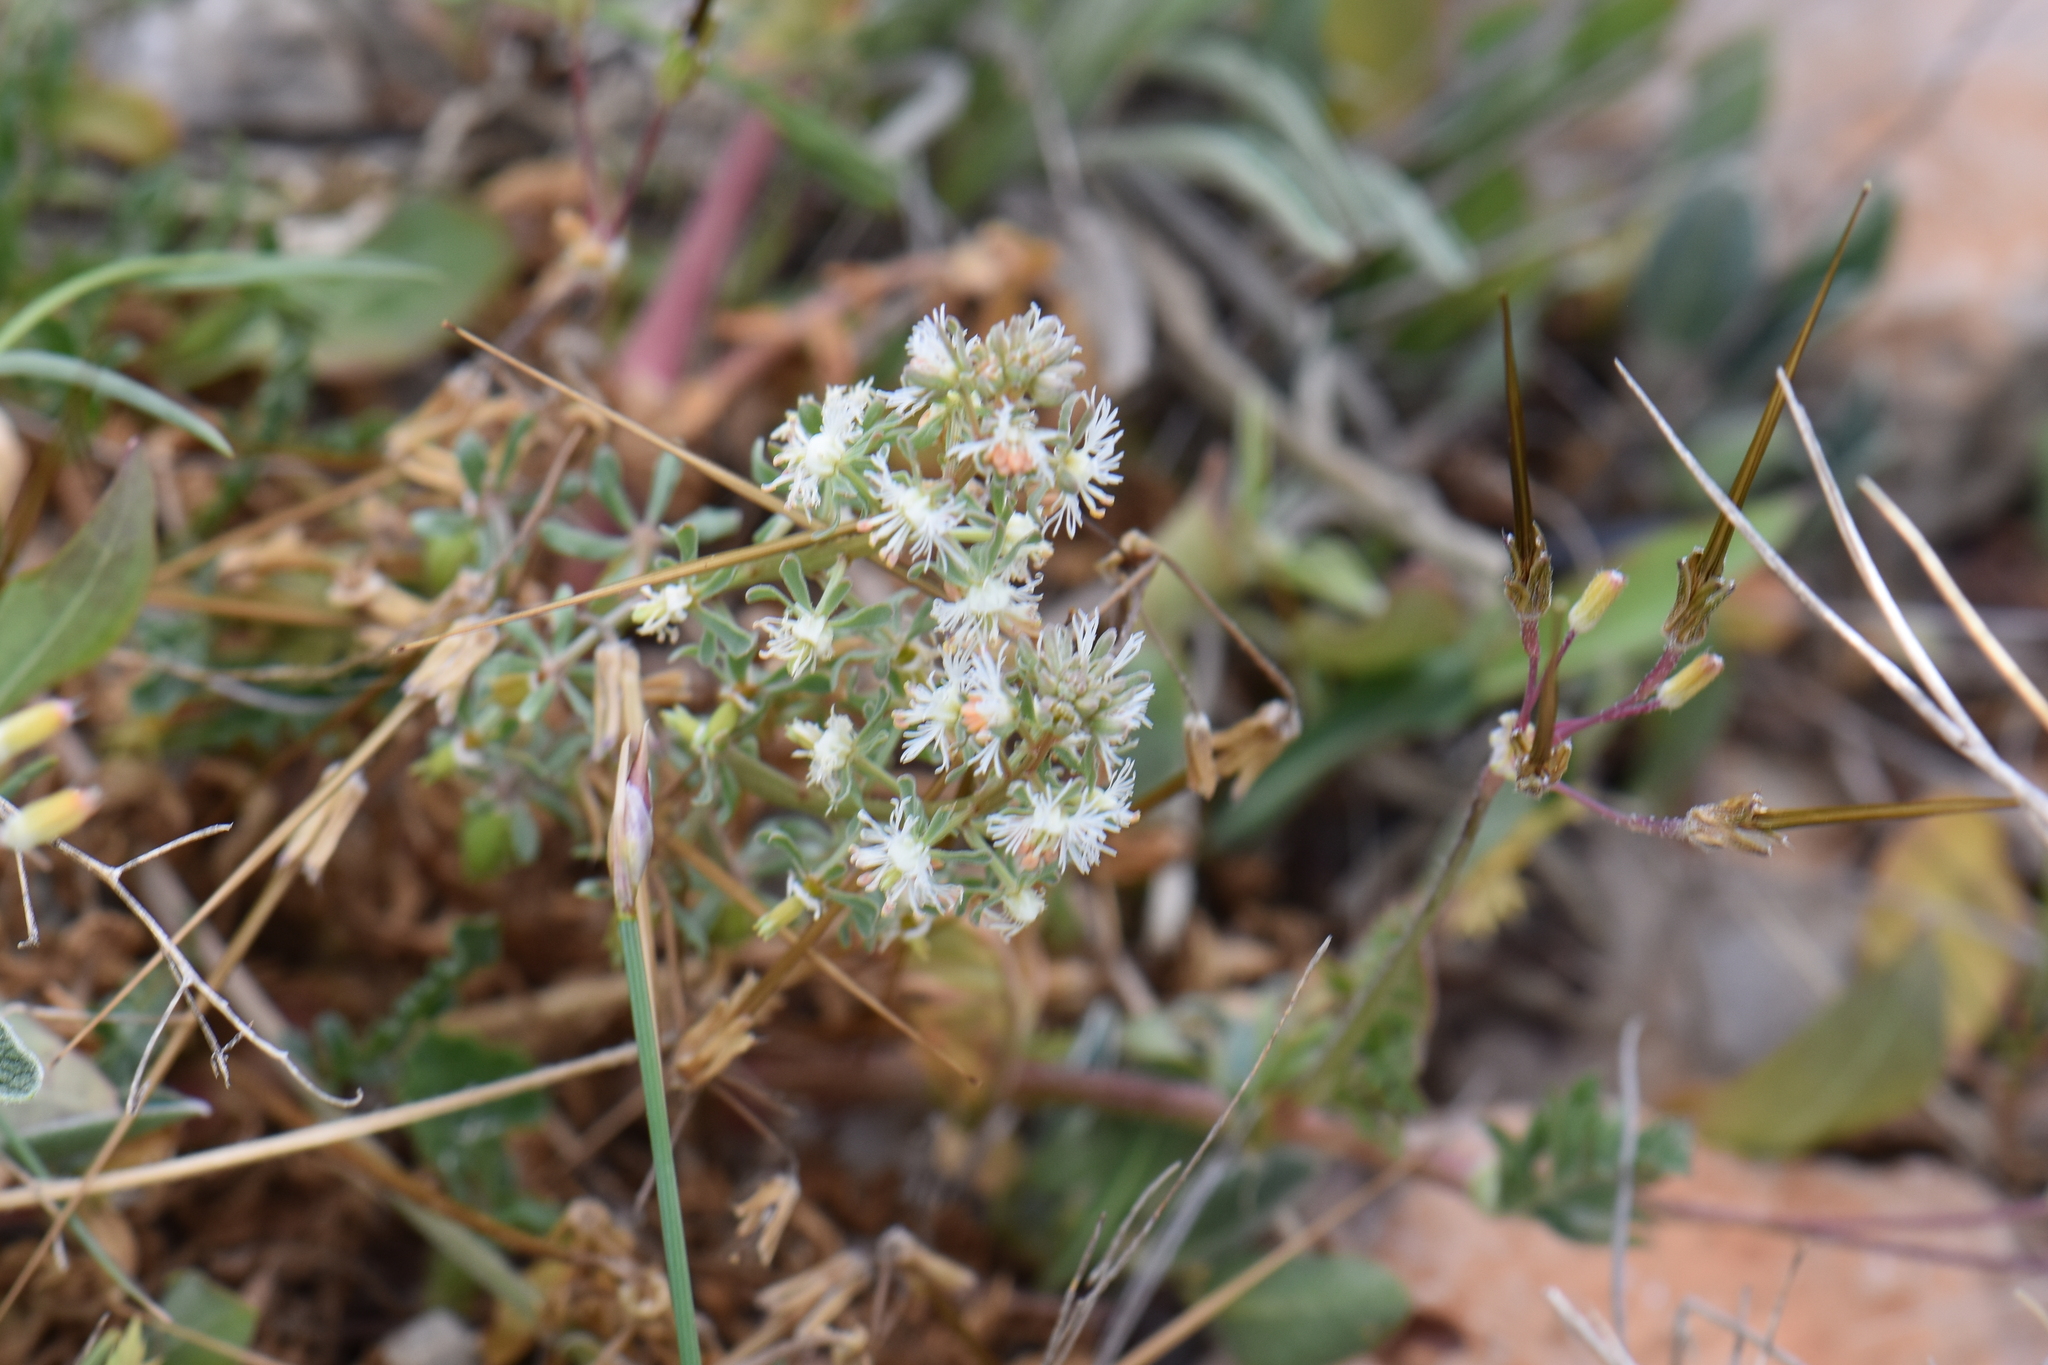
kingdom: Plantae
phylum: Tracheophyta
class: Magnoliopsida
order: Brassicales
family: Resedaceae
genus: Reseda
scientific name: Reseda phyteuma
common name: Corn mignonette
